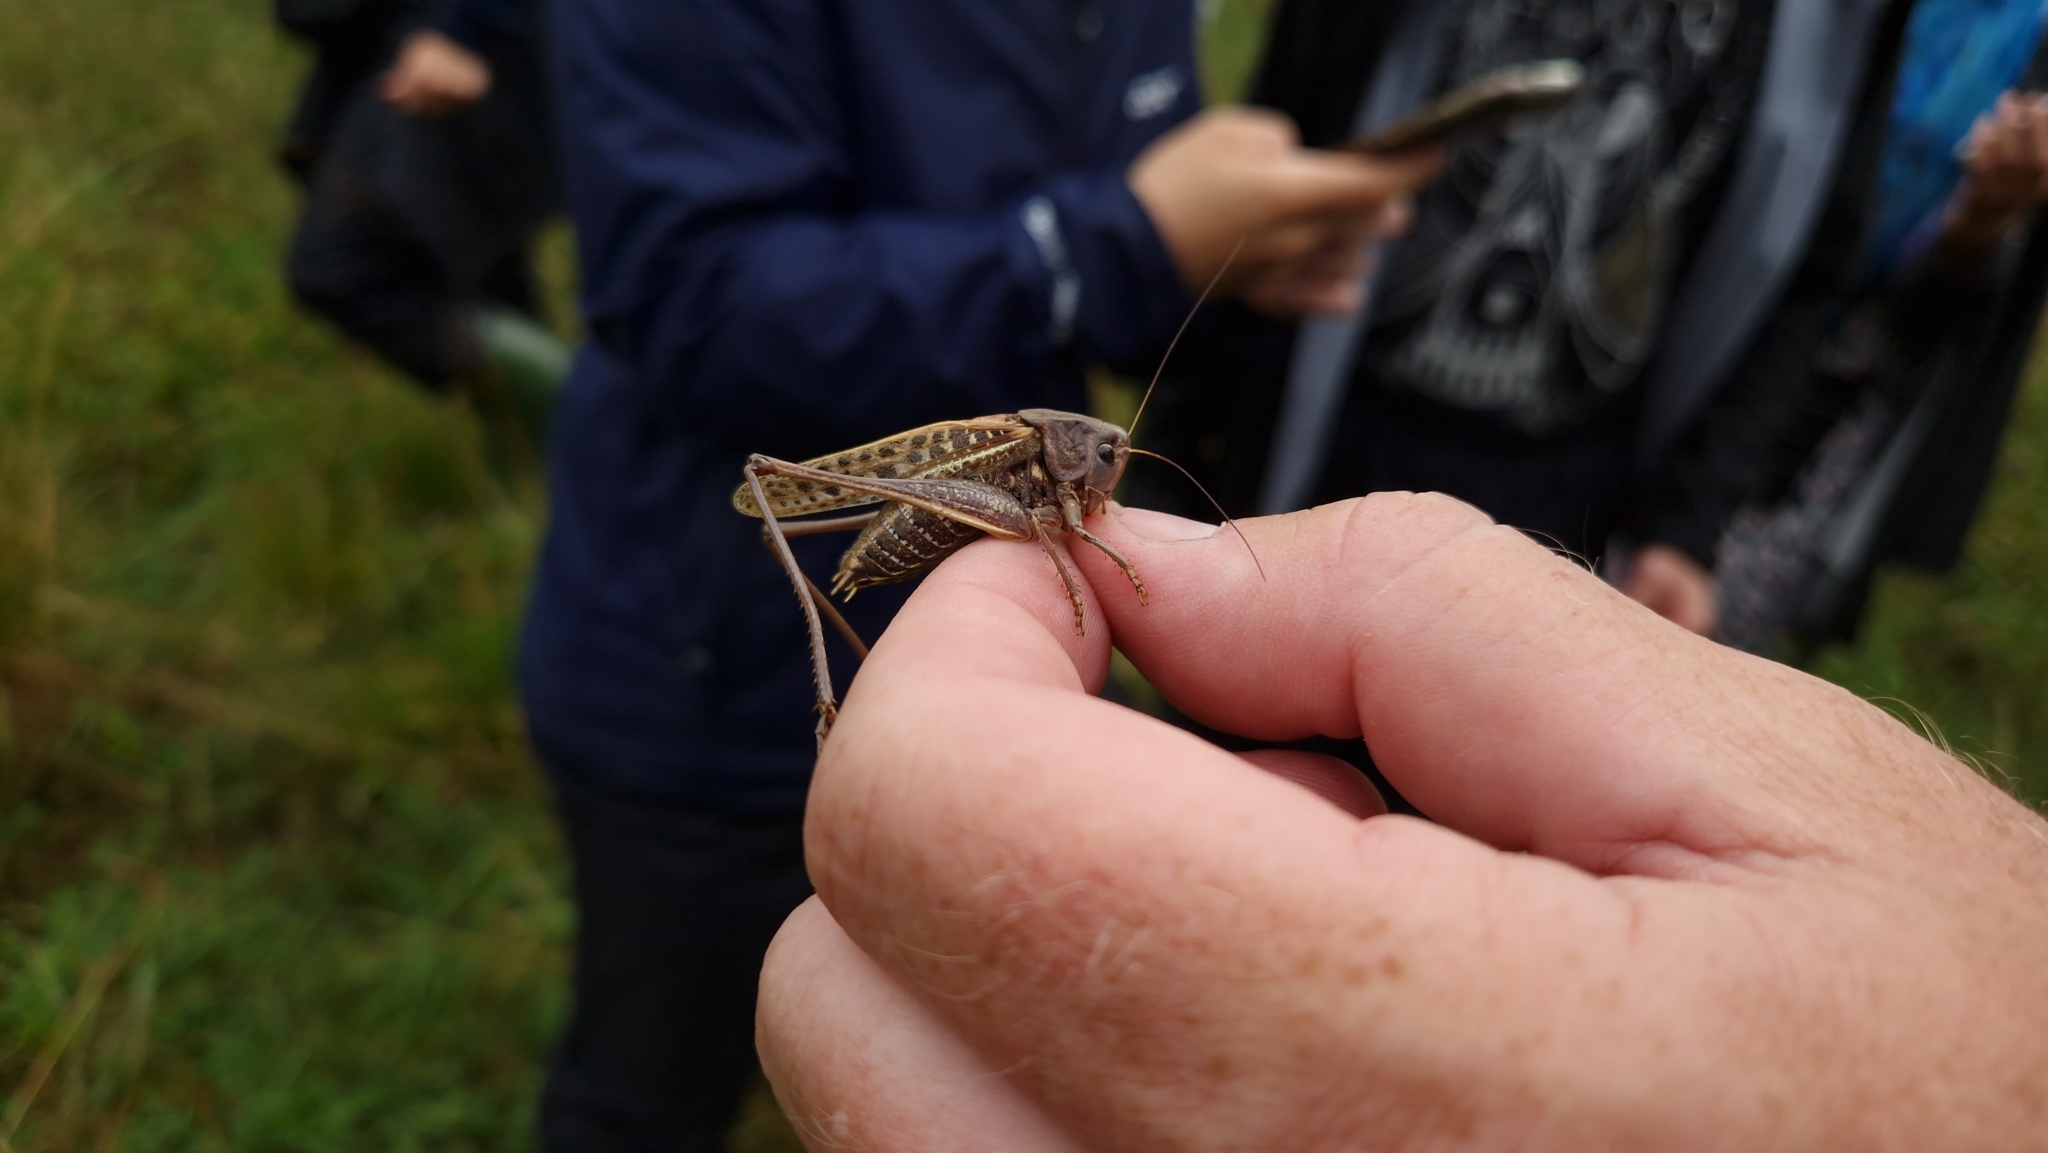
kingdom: Animalia
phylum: Arthropoda
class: Insecta
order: Orthoptera
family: Tettigoniidae
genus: Decticus
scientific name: Decticus verrucivorus
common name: Wart-biter
